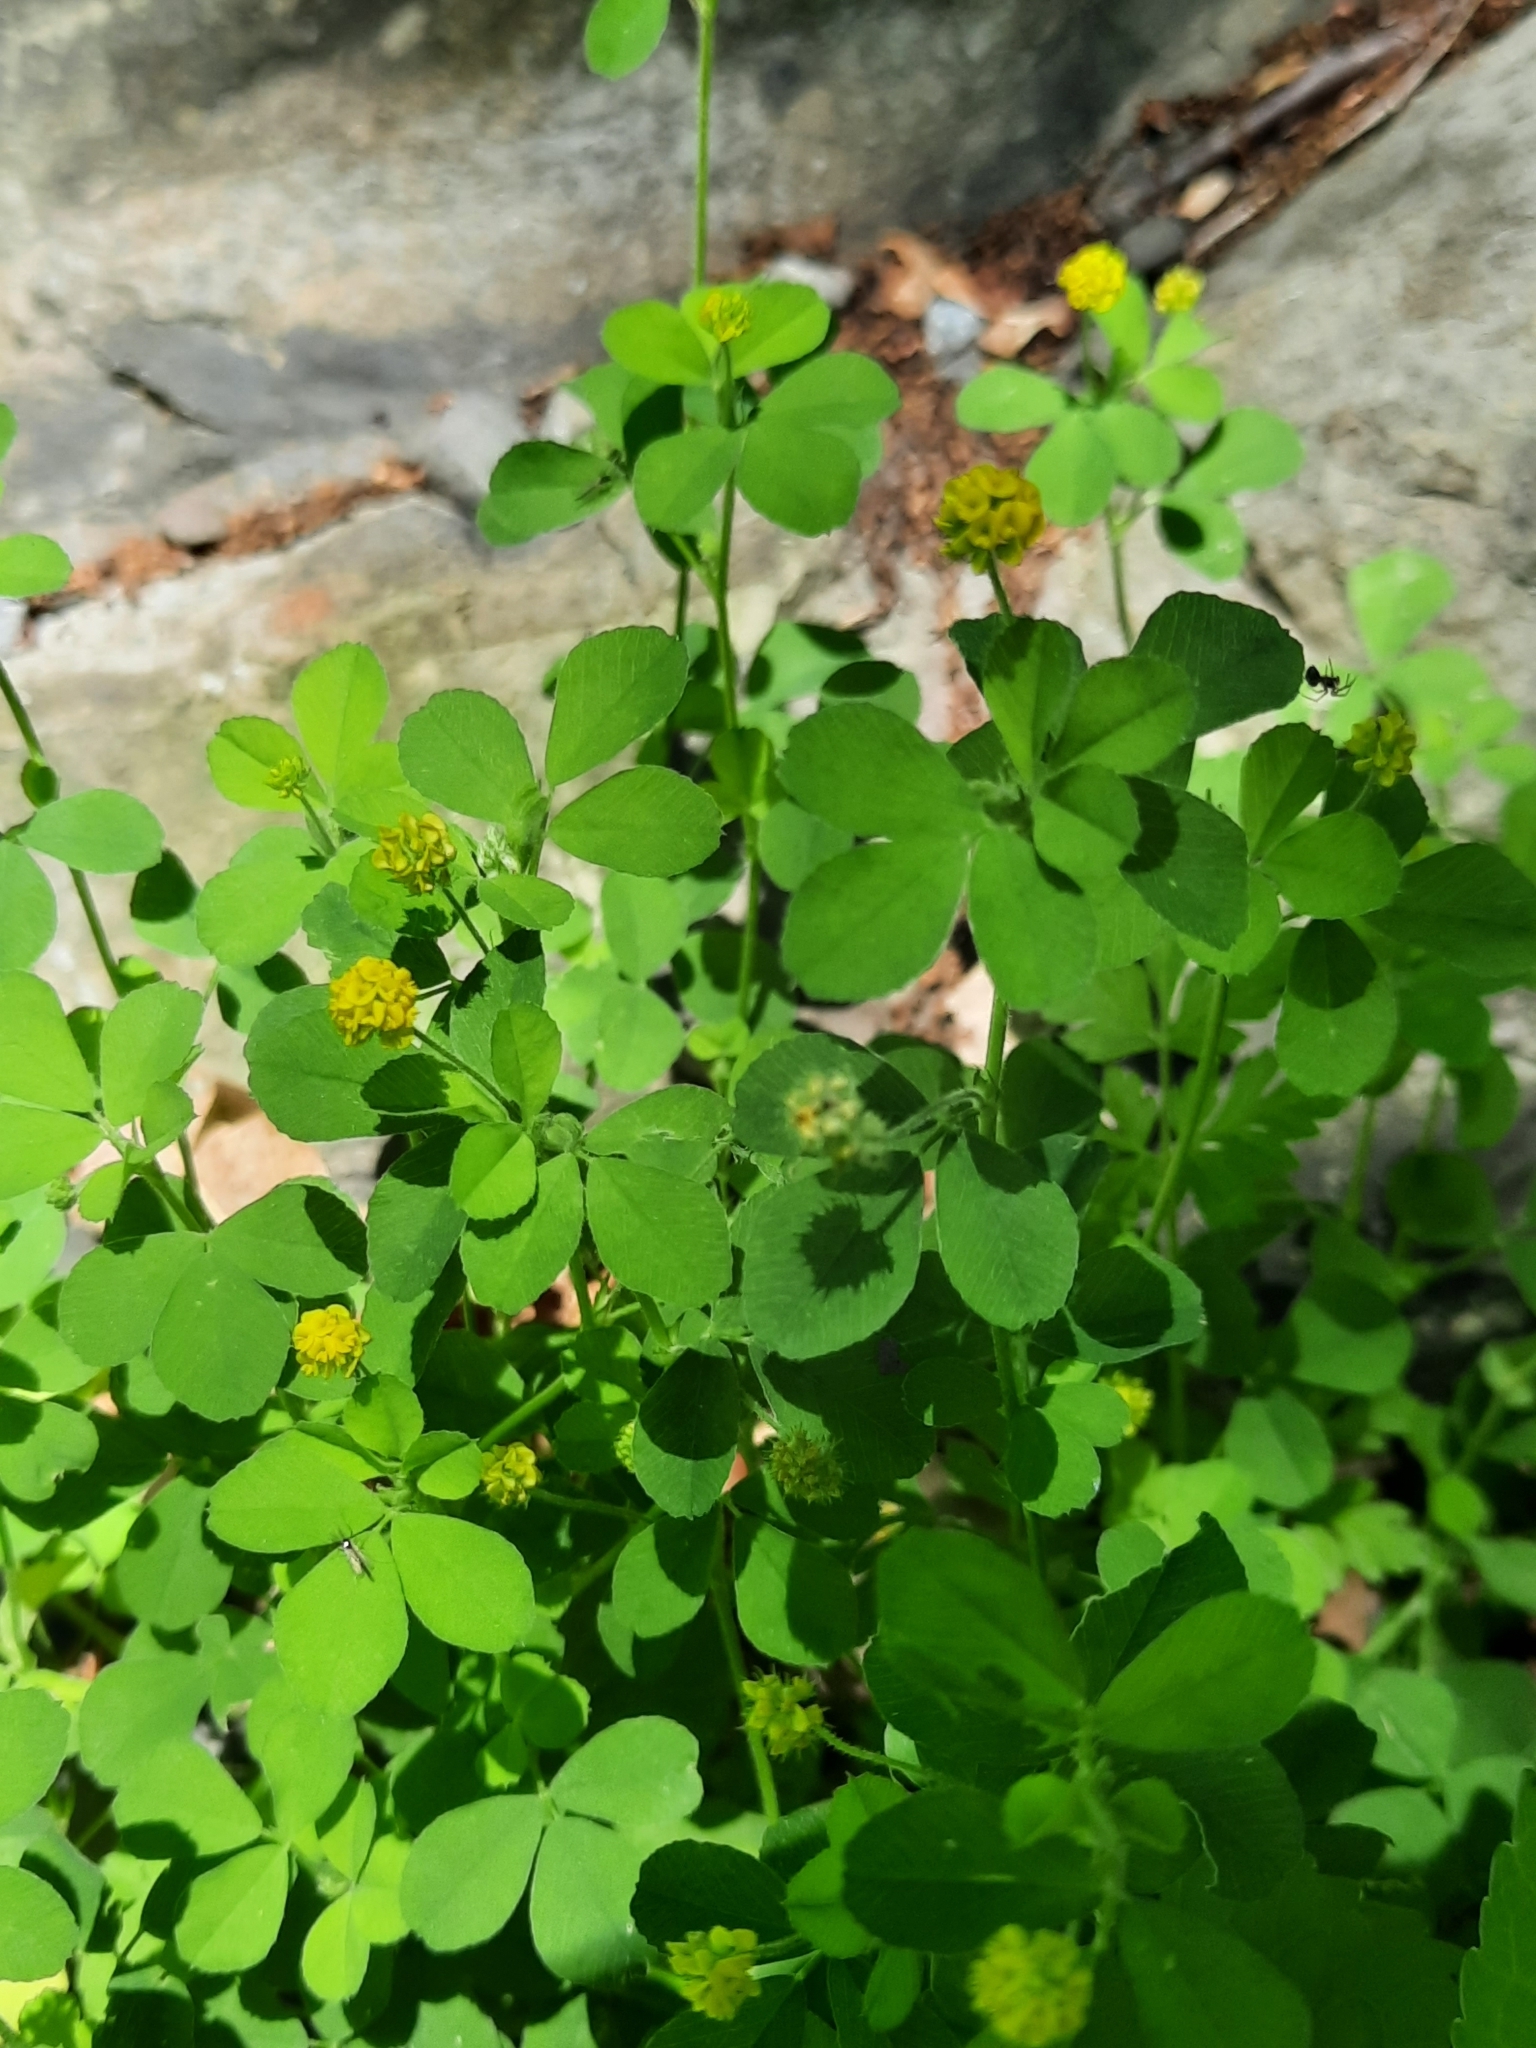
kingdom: Plantae
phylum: Tracheophyta
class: Magnoliopsida
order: Fabales
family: Fabaceae
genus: Medicago
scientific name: Medicago lupulina
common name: Black medick
